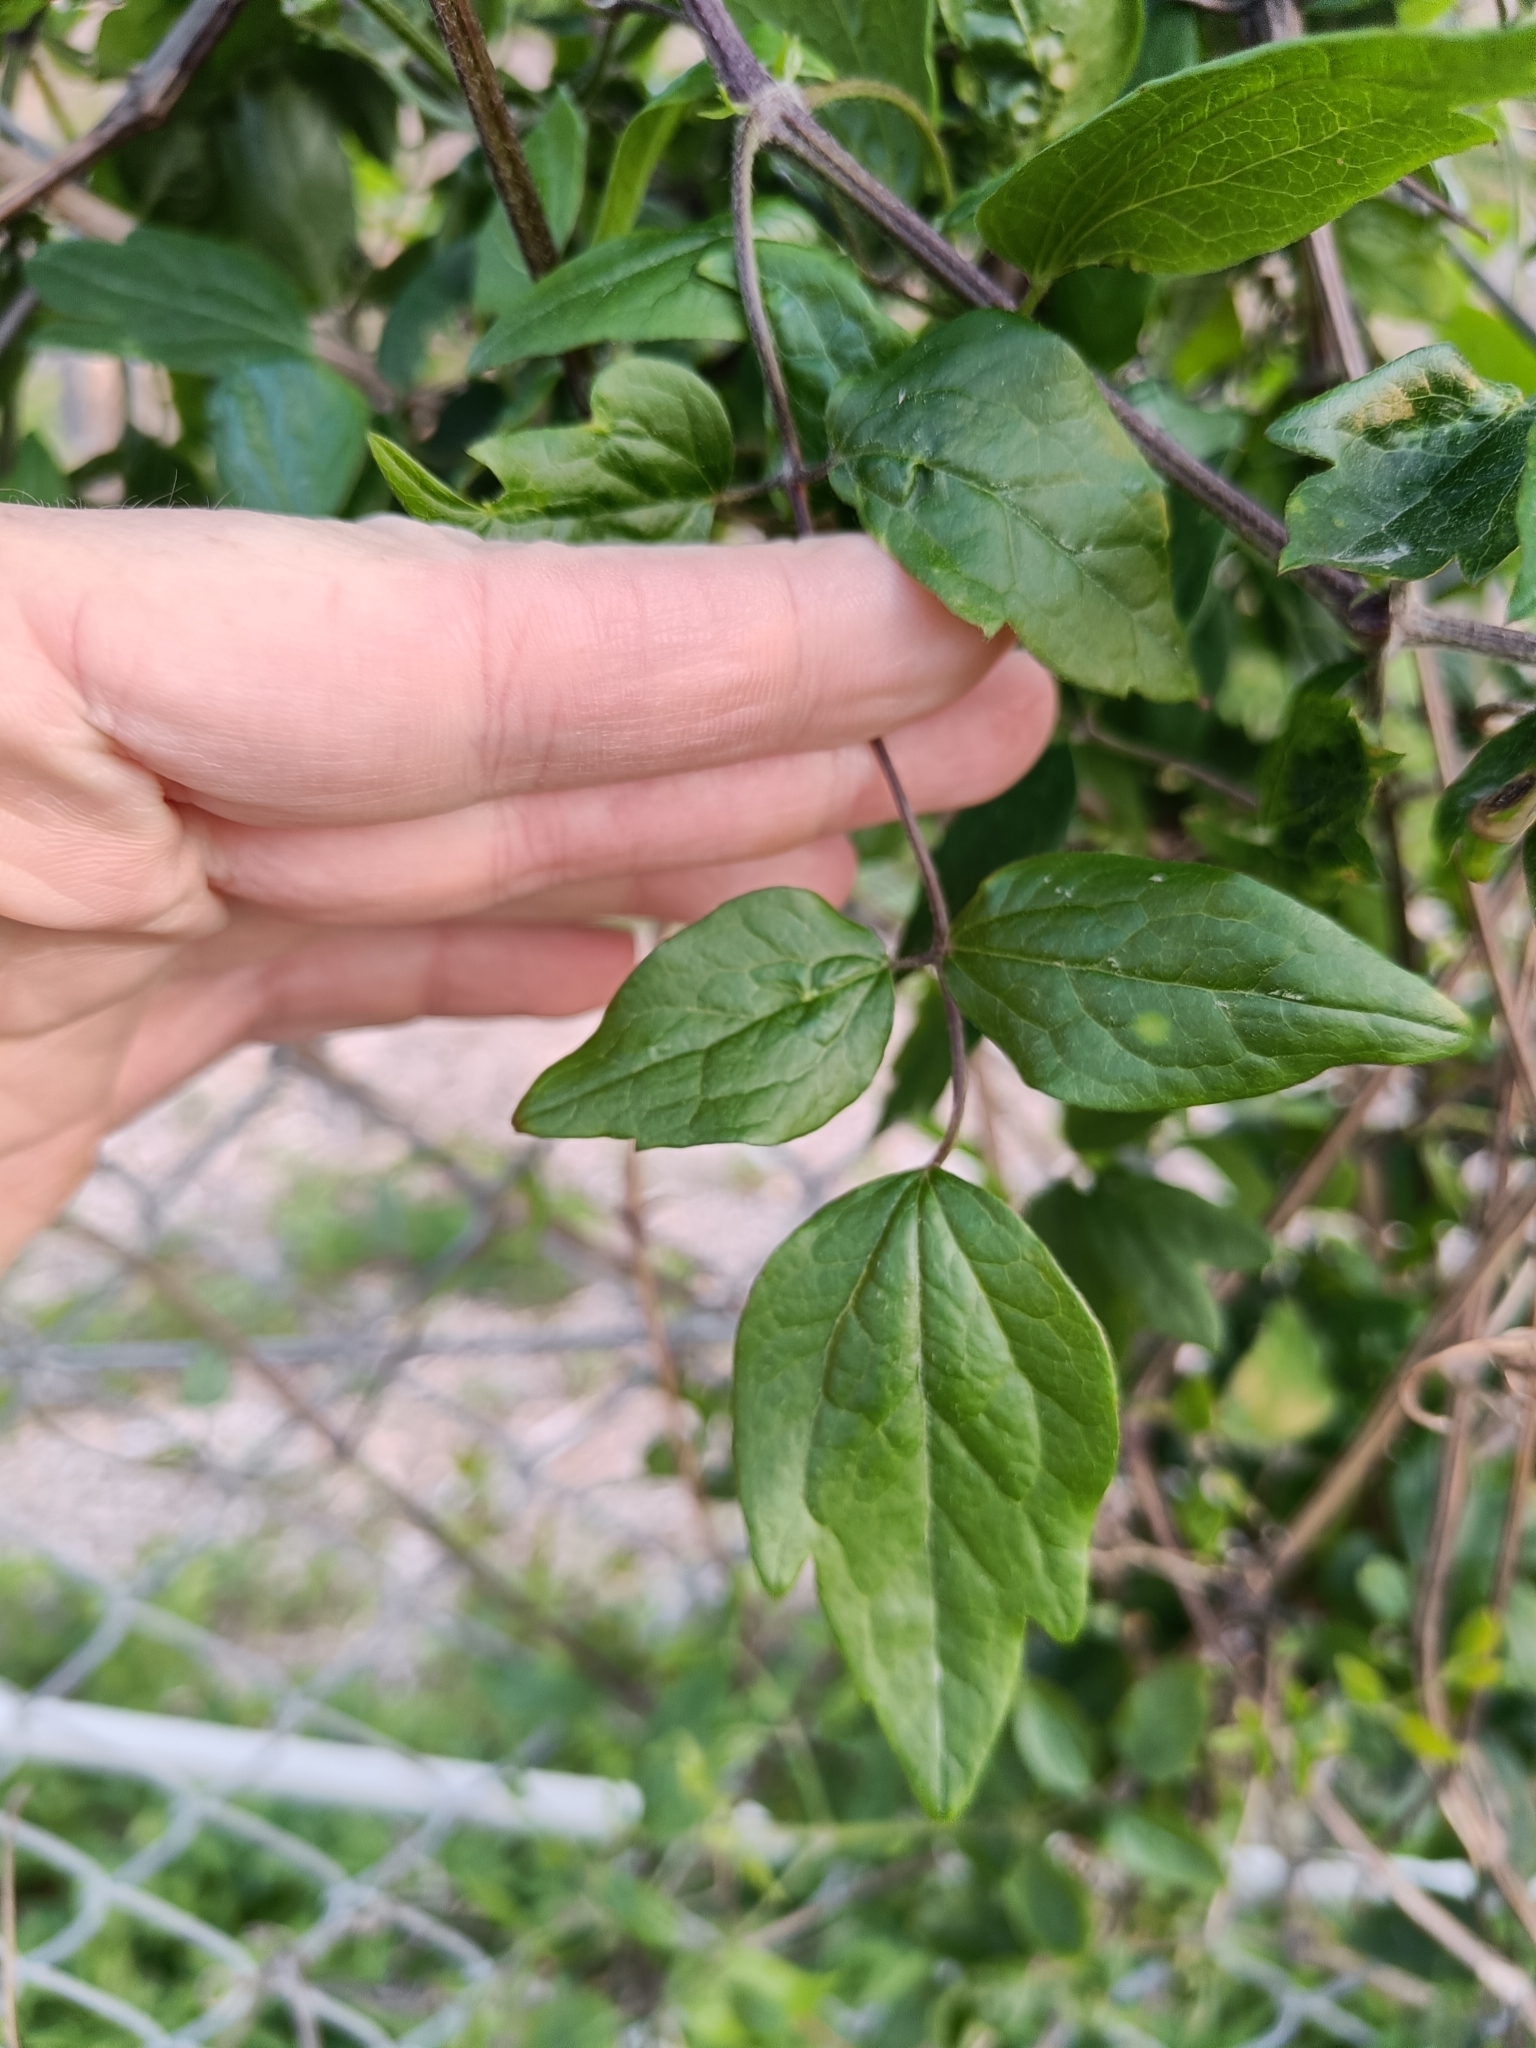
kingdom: Plantae
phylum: Tracheophyta
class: Magnoliopsida
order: Ranunculales
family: Ranunculaceae
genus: Clematis
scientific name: Clematis vitalba
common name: Evergreen clematis
